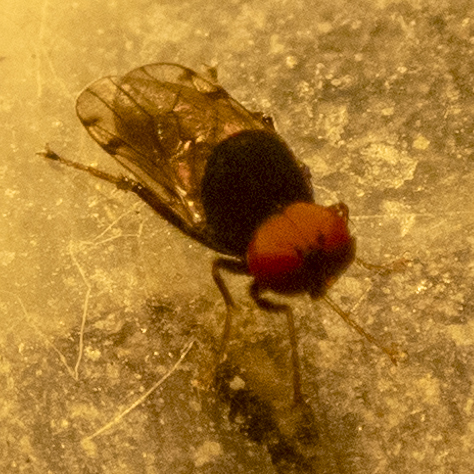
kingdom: Animalia
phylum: Arthropoda
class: Insecta
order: Diptera
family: Hybotidae
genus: Syneches
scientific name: Syneches simplex
